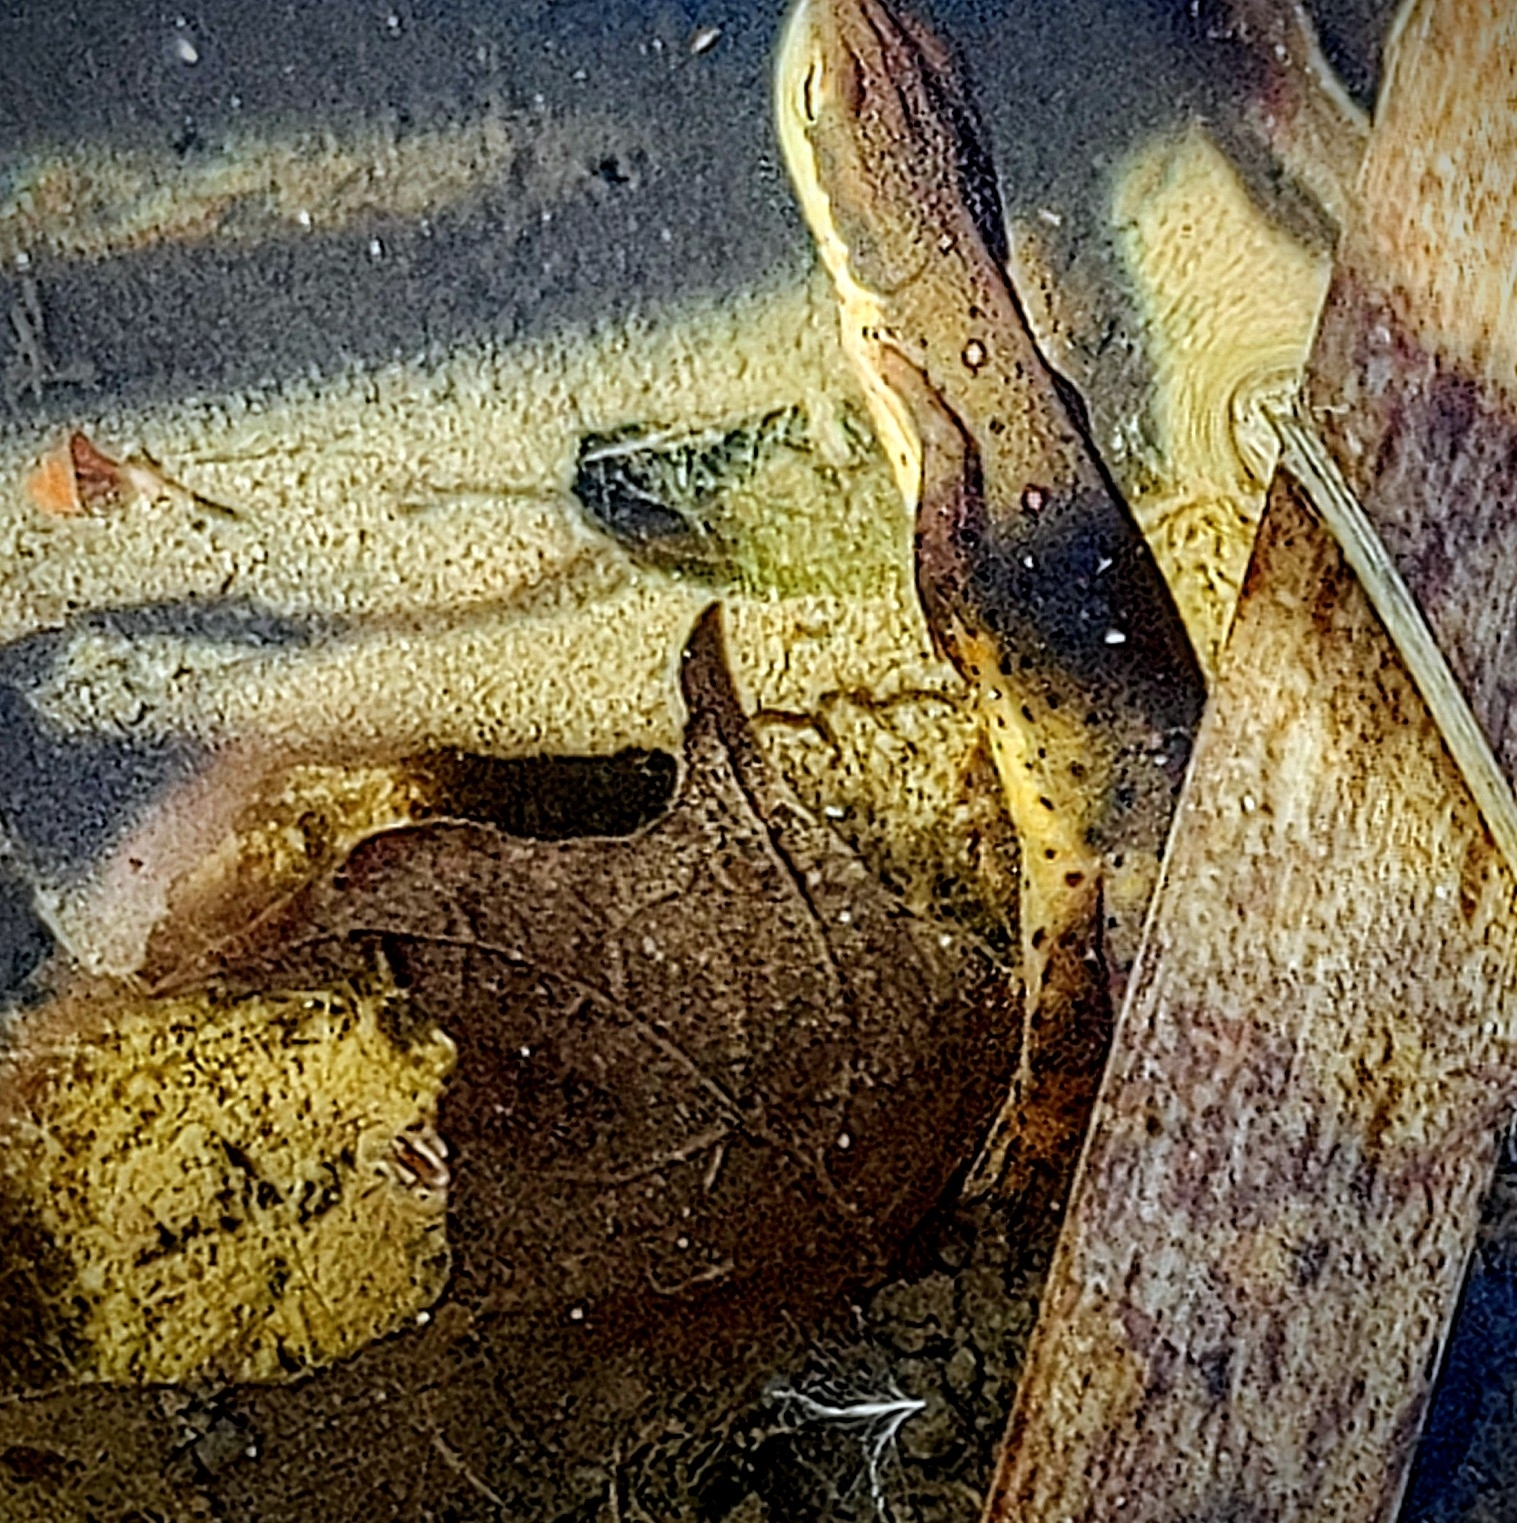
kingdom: Animalia
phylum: Chordata
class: Amphibia
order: Caudata
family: Salamandridae
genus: Notophthalmus
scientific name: Notophthalmus viridescens
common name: Eastern newt
